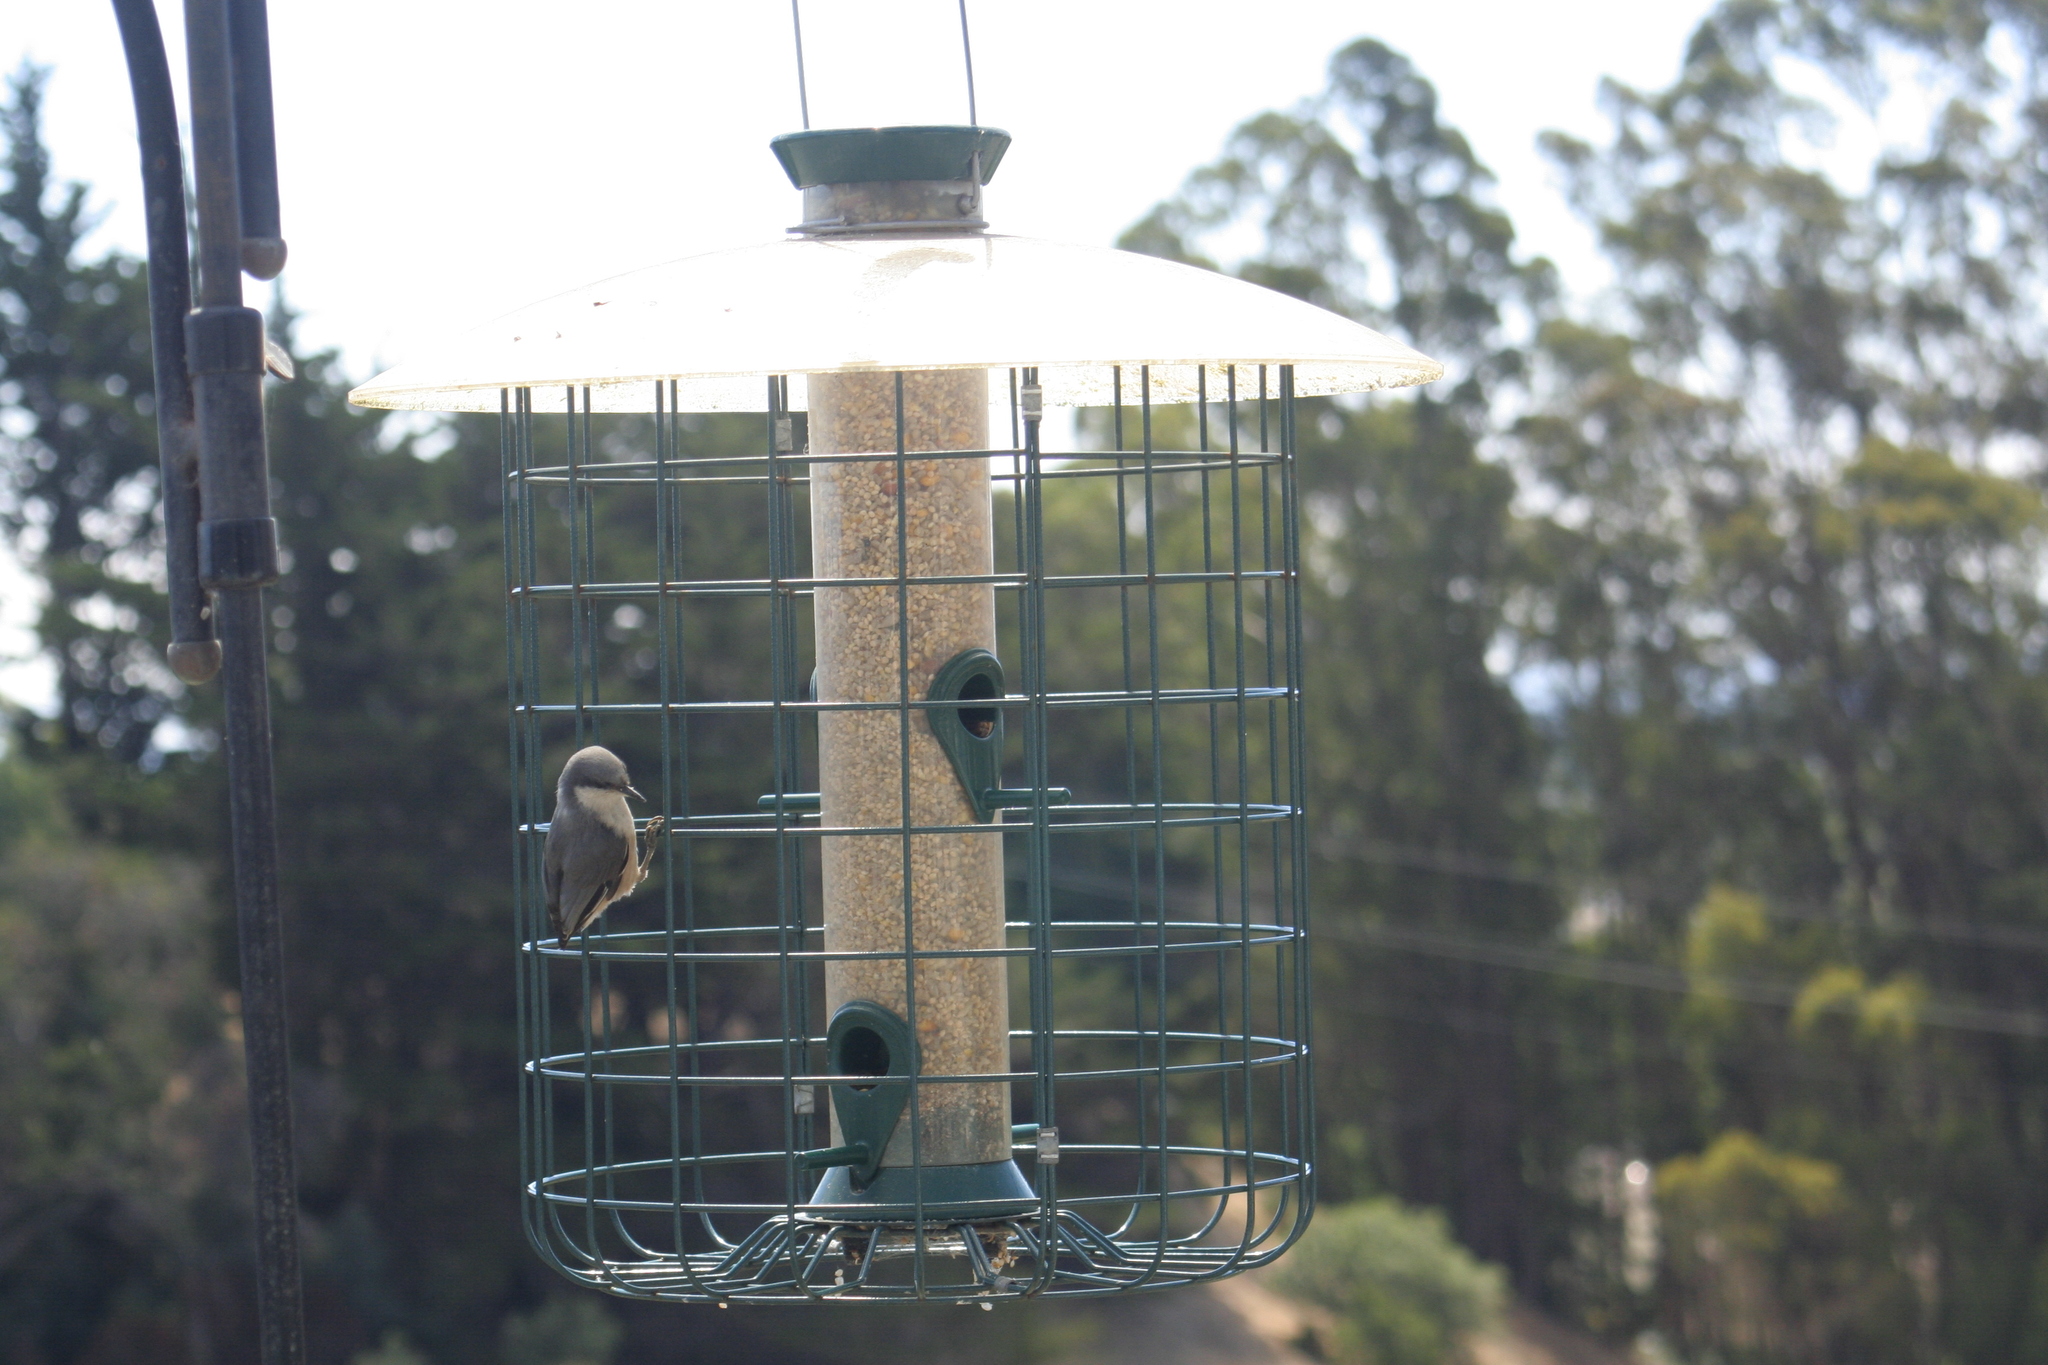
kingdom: Animalia
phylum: Chordata
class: Aves
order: Passeriformes
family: Sittidae
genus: Sitta
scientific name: Sitta pygmaea
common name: Pygmy nuthatch
